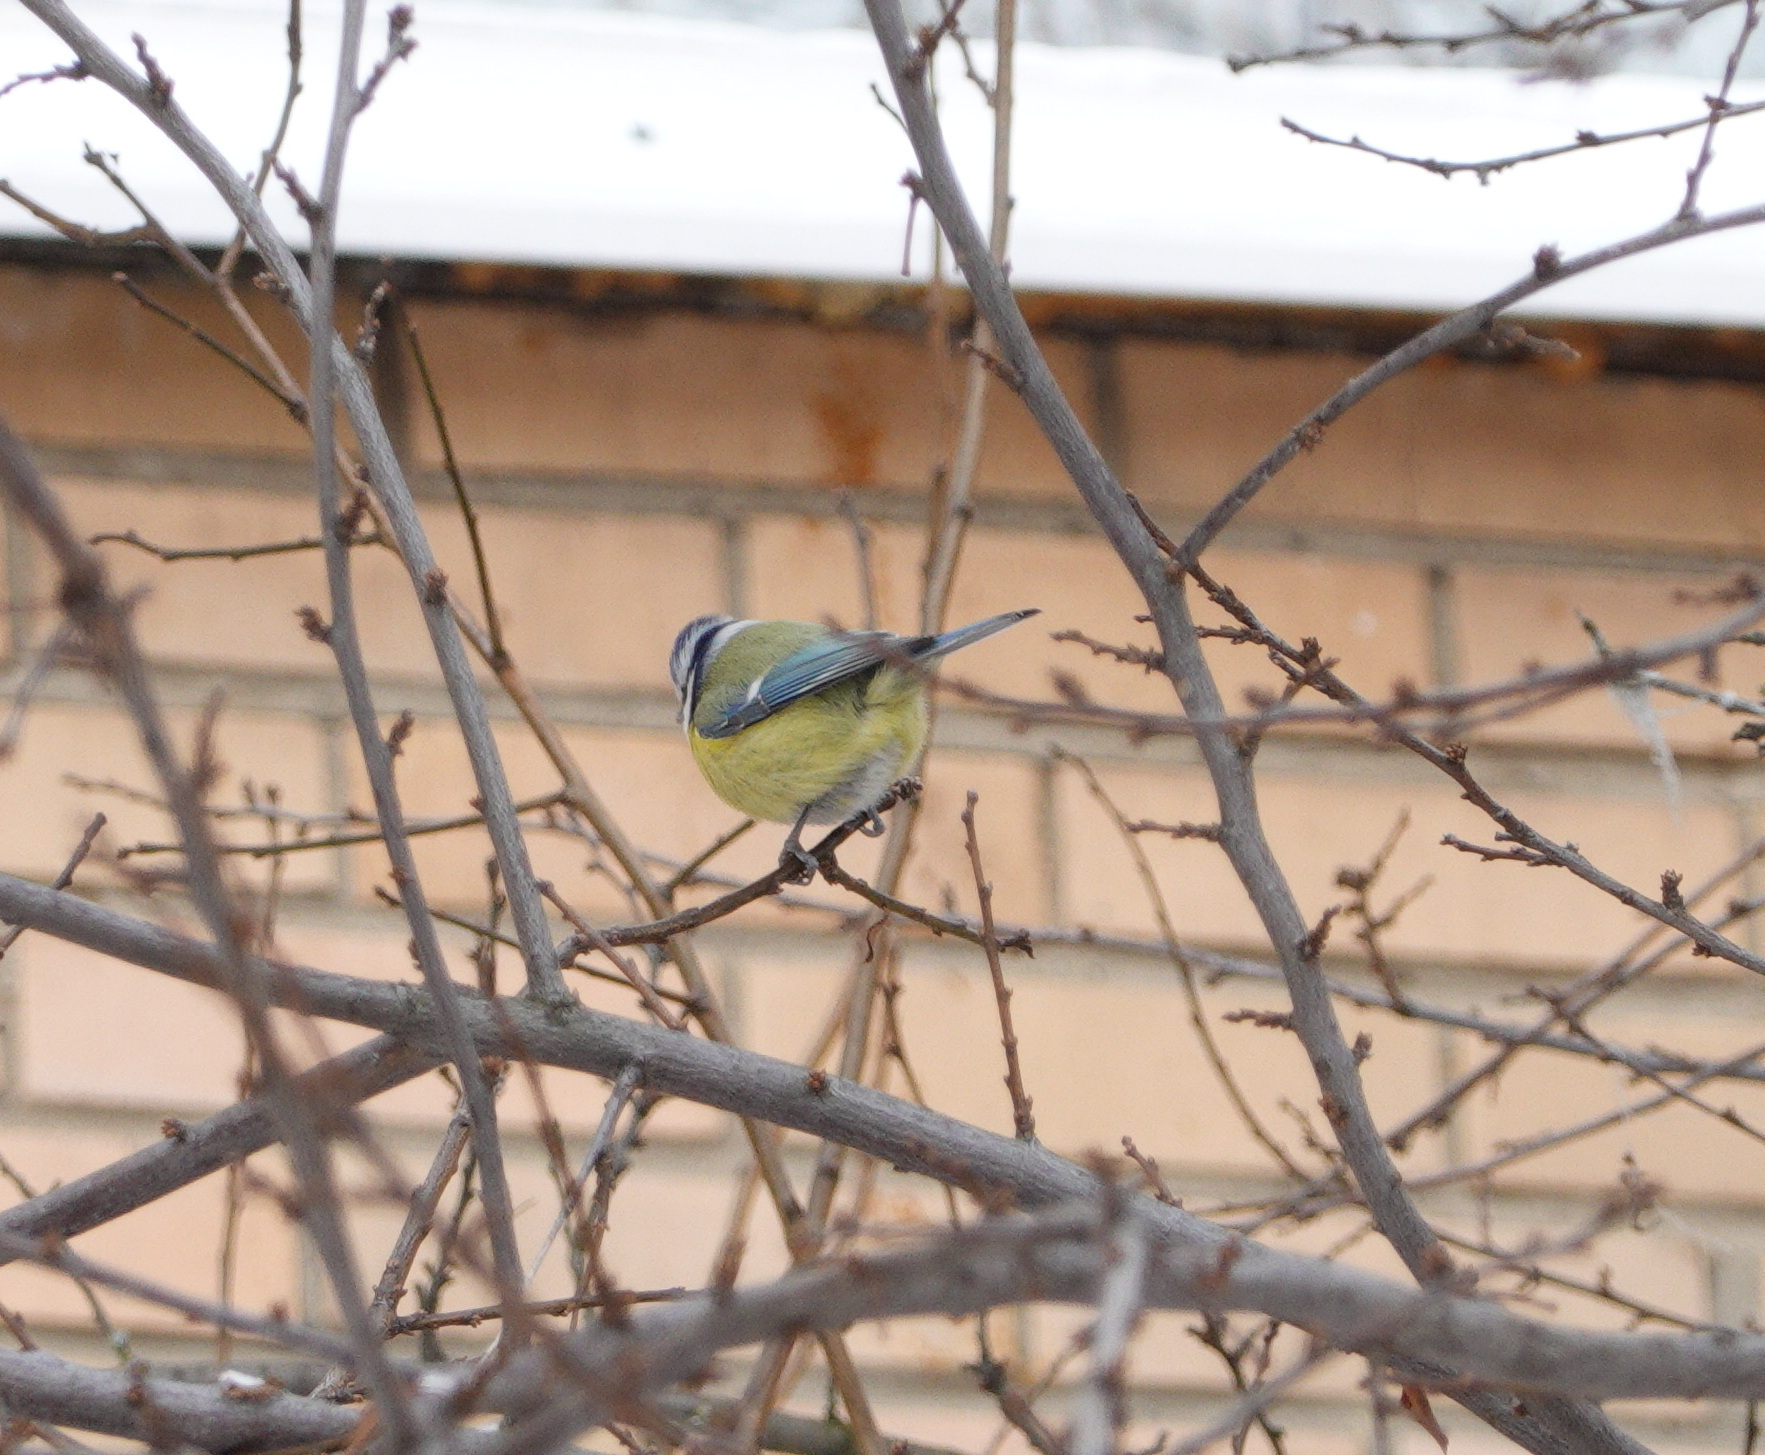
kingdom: Animalia
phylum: Chordata
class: Aves
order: Passeriformes
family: Paridae
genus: Cyanistes
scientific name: Cyanistes caeruleus
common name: Eurasian blue tit
